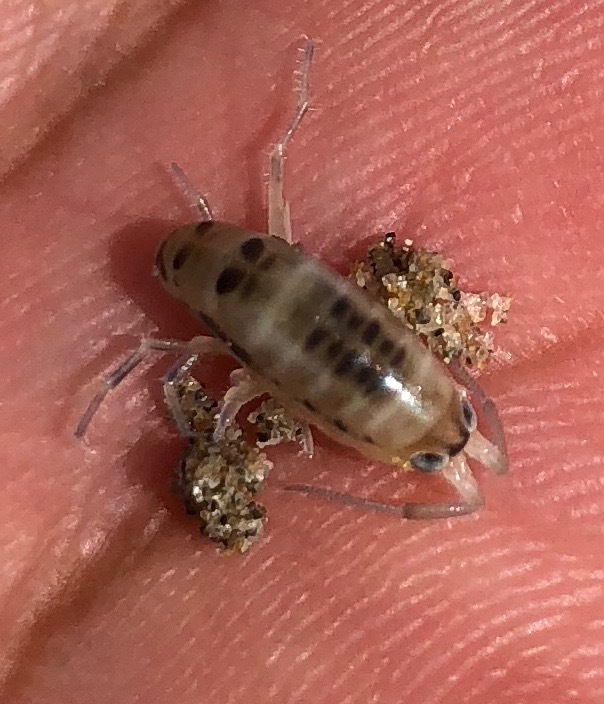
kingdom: Animalia
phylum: Arthropoda
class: Malacostraca
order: Amphipoda
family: Talitridae
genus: Megalorchestia
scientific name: Megalorchestia columbiana
